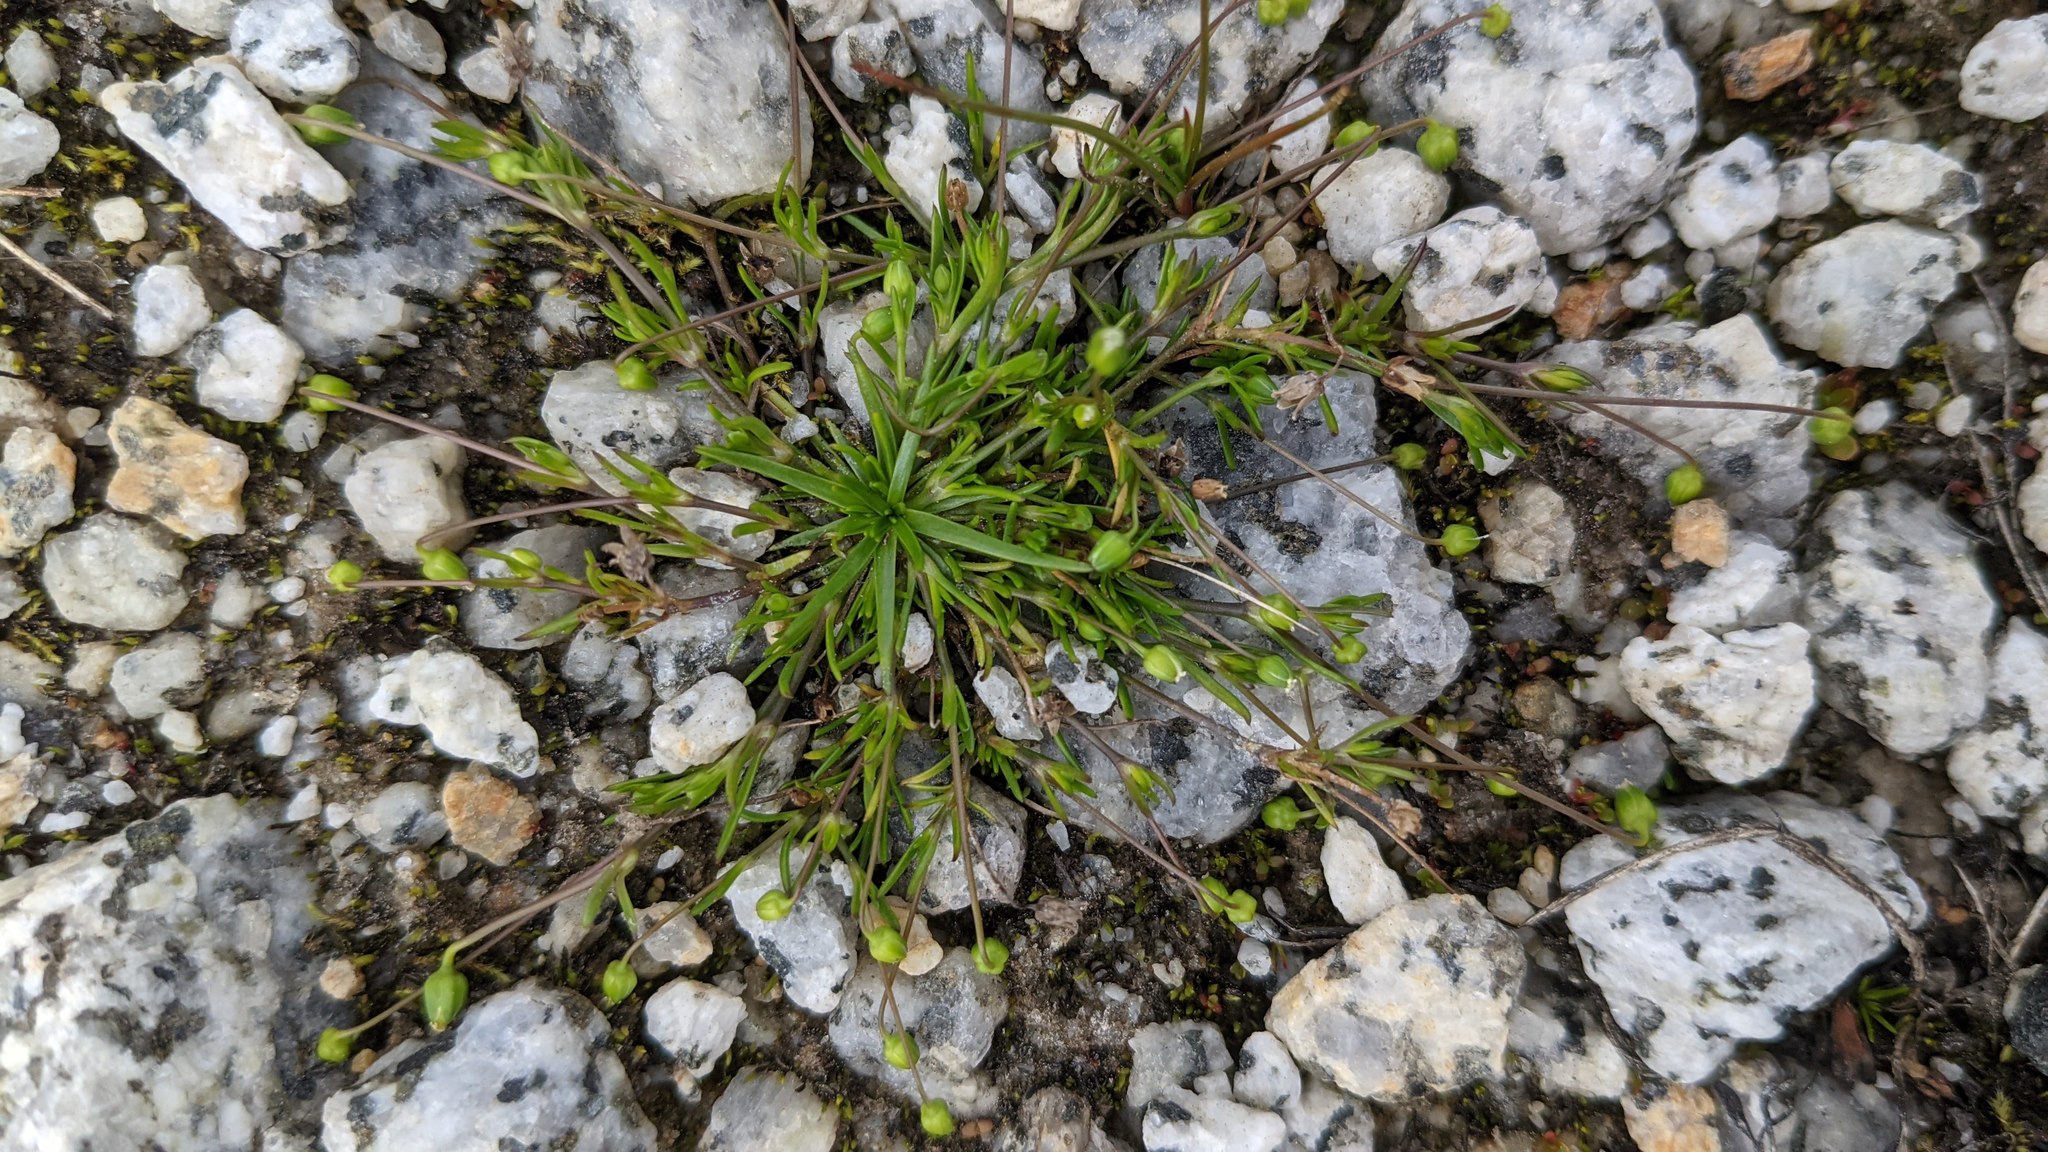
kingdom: Plantae
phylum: Tracheophyta
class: Magnoliopsida
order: Caryophyllales
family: Caryophyllaceae
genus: Sagina
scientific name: Sagina saginoides
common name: Alpine pearlwort
